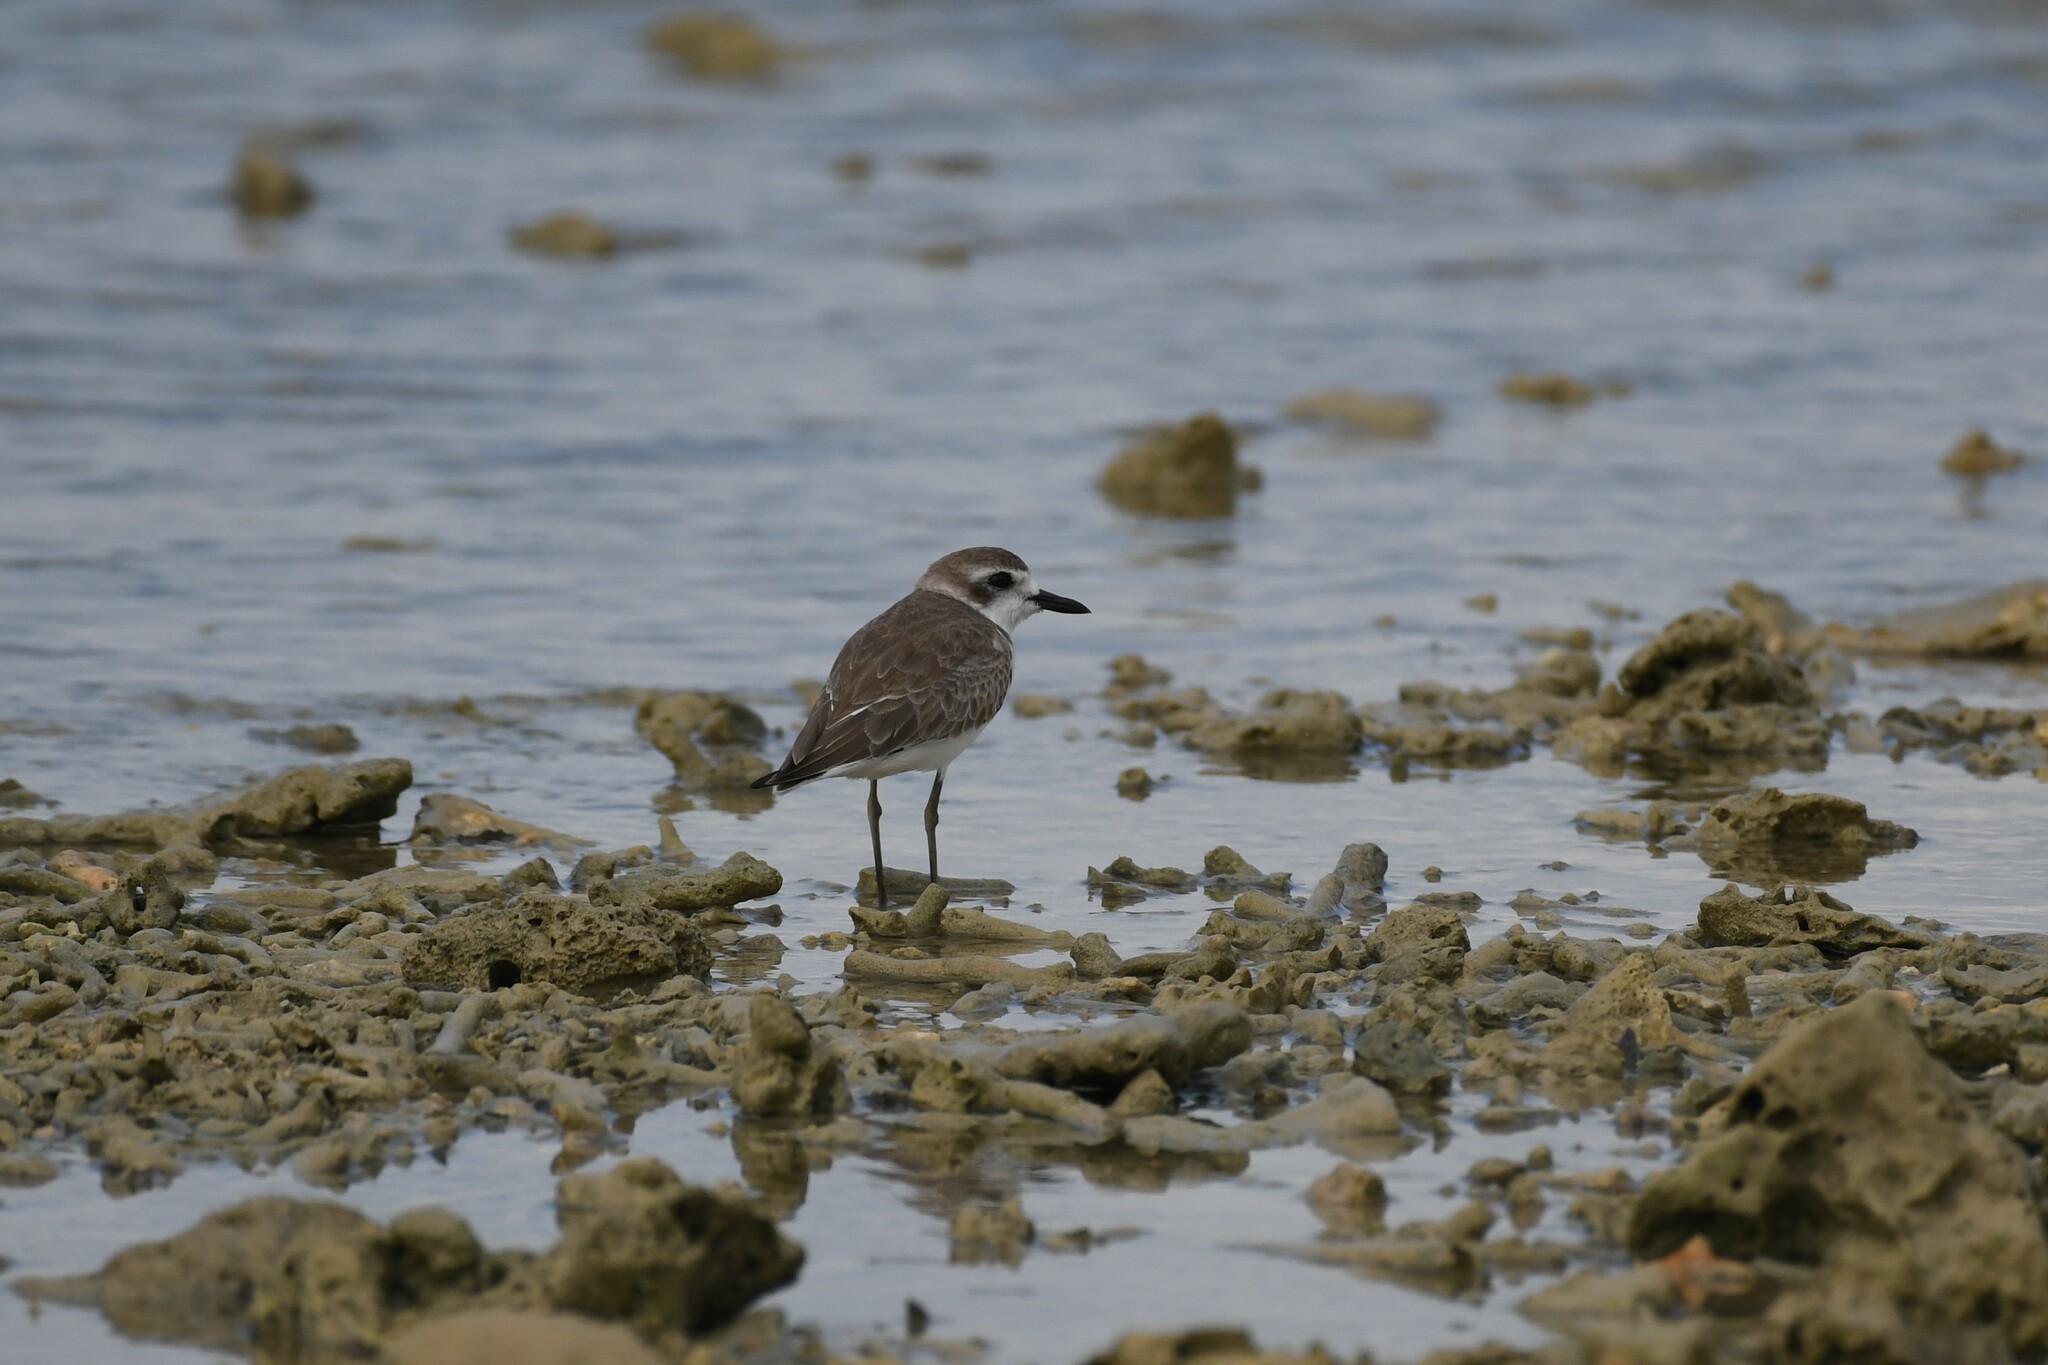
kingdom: Animalia
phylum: Chordata
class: Aves
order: Charadriiformes
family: Charadriidae
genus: Charadrius
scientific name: Charadrius leschenaultii
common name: Greater sand plover
